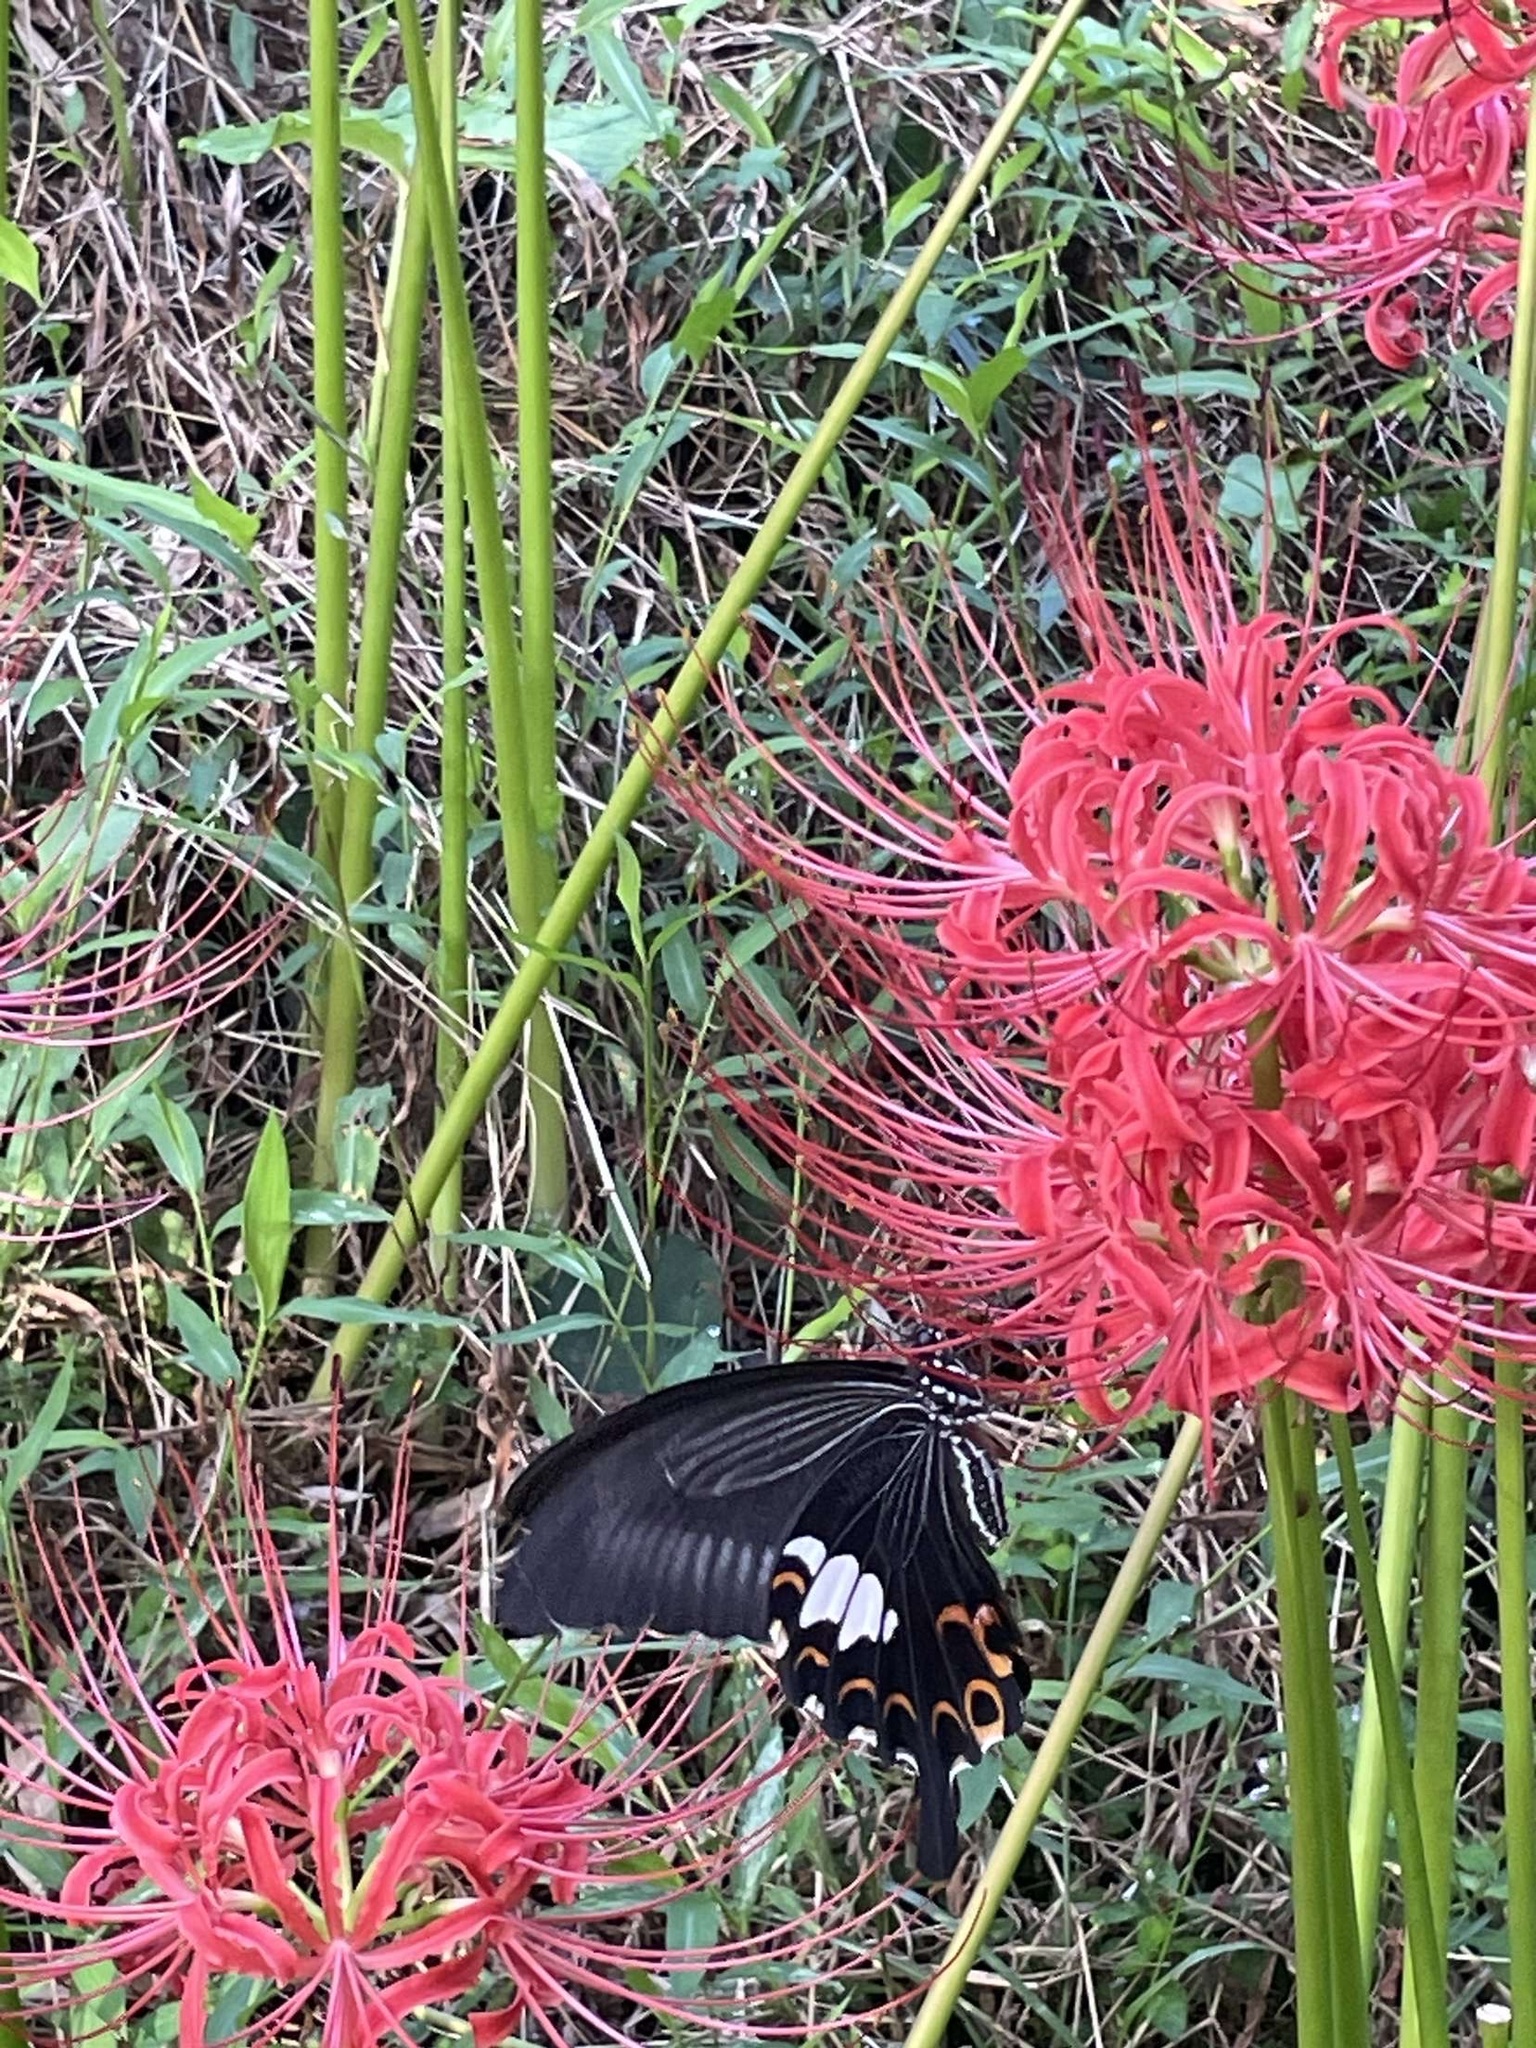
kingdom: Animalia
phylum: Arthropoda
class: Insecta
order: Lepidoptera
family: Papilionidae
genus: Papilio
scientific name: Papilio helenus
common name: Red helen
